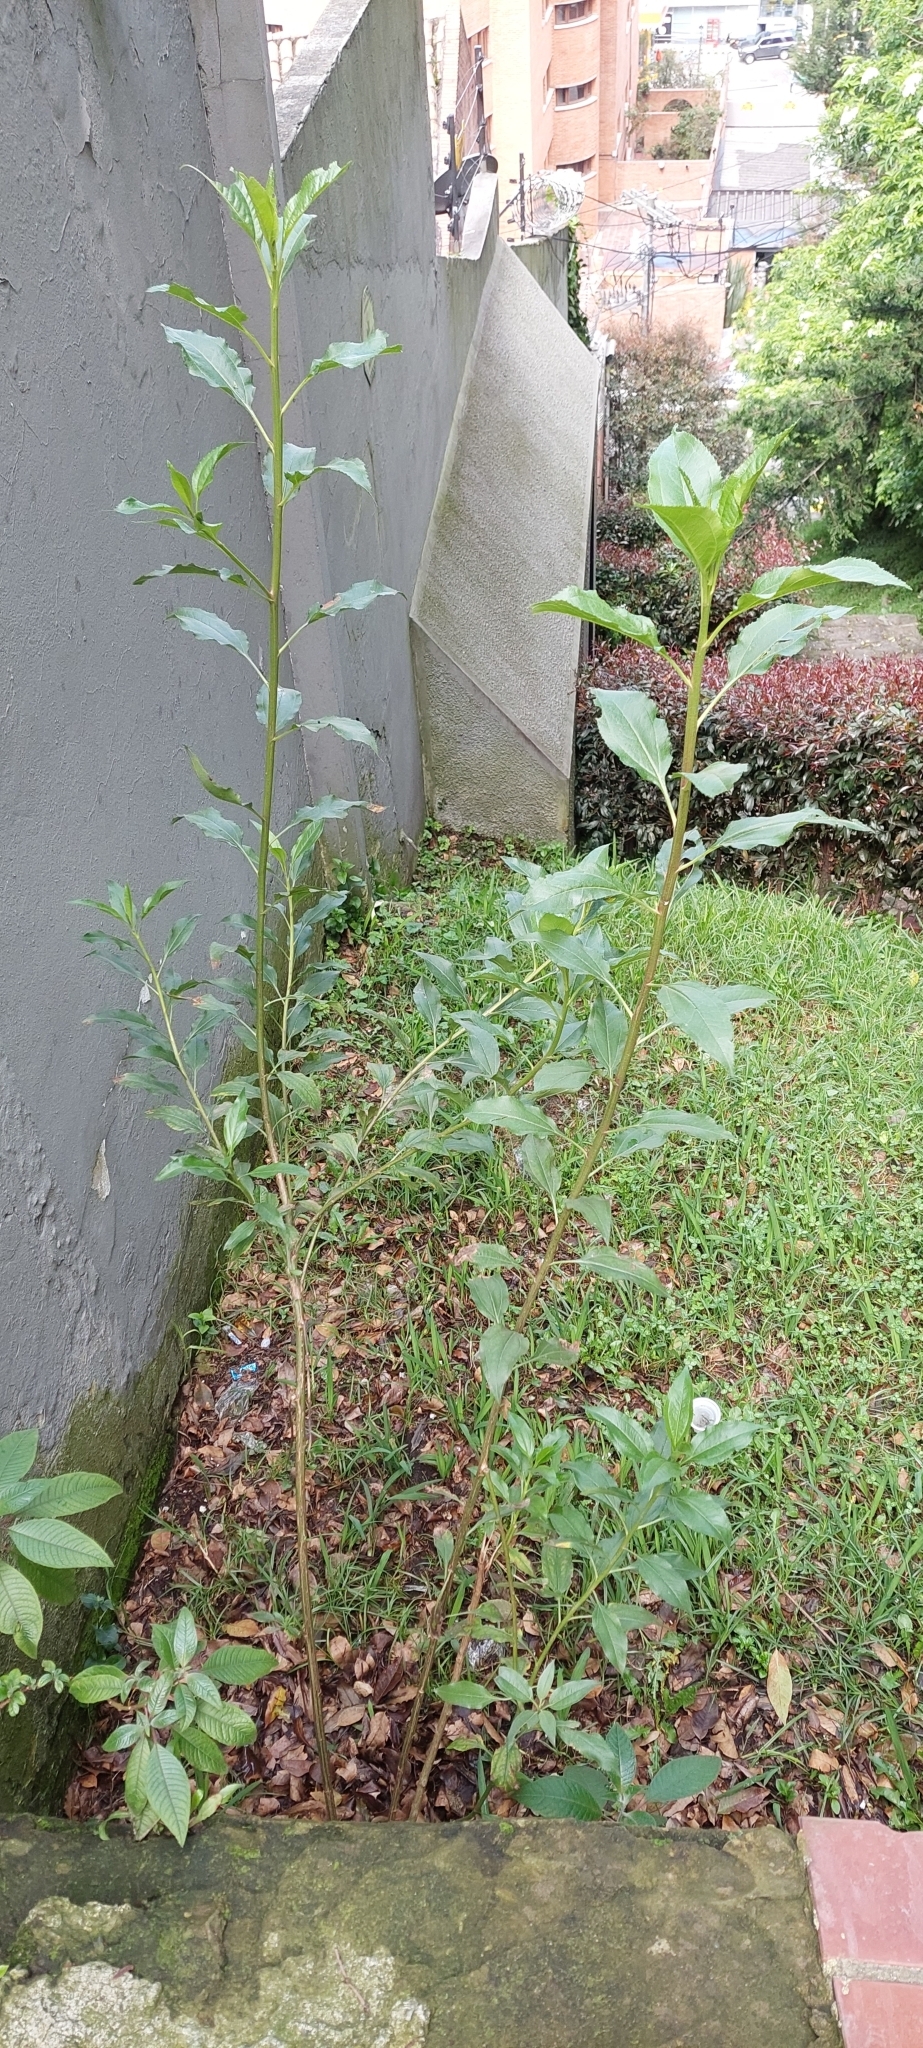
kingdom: Plantae
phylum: Tracheophyta
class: Magnoliopsida
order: Asterales
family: Asteraceae
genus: Baccharis
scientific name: Baccharis latifolia
